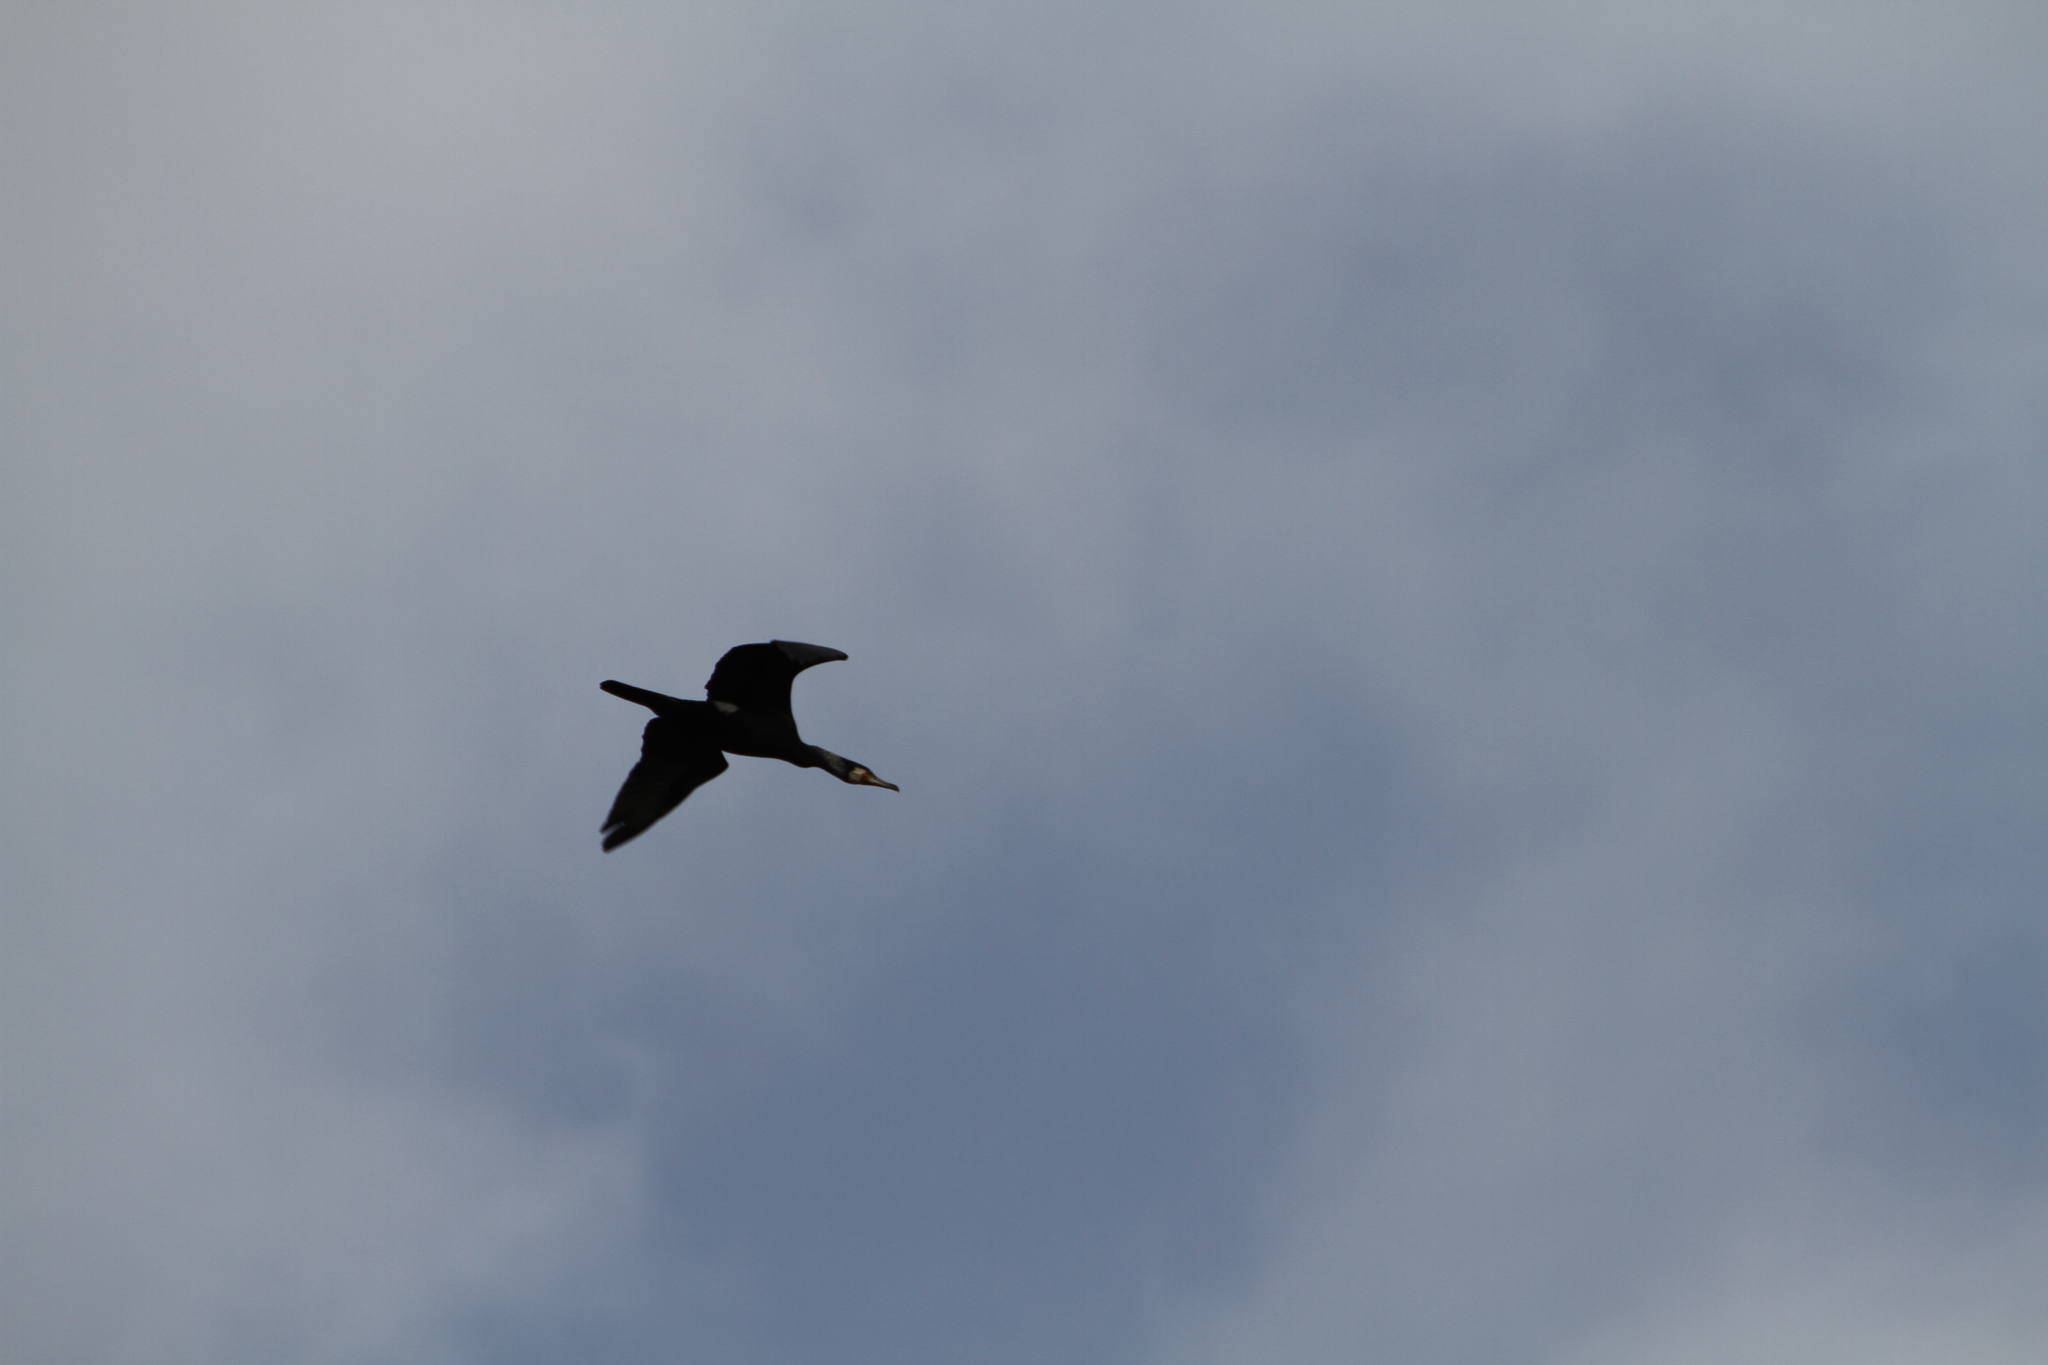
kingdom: Animalia
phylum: Chordata
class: Aves
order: Suliformes
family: Phalacrocoracidae
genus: Phalacrocorax
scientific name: Phalacrocorax carbo
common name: Great cormorant
